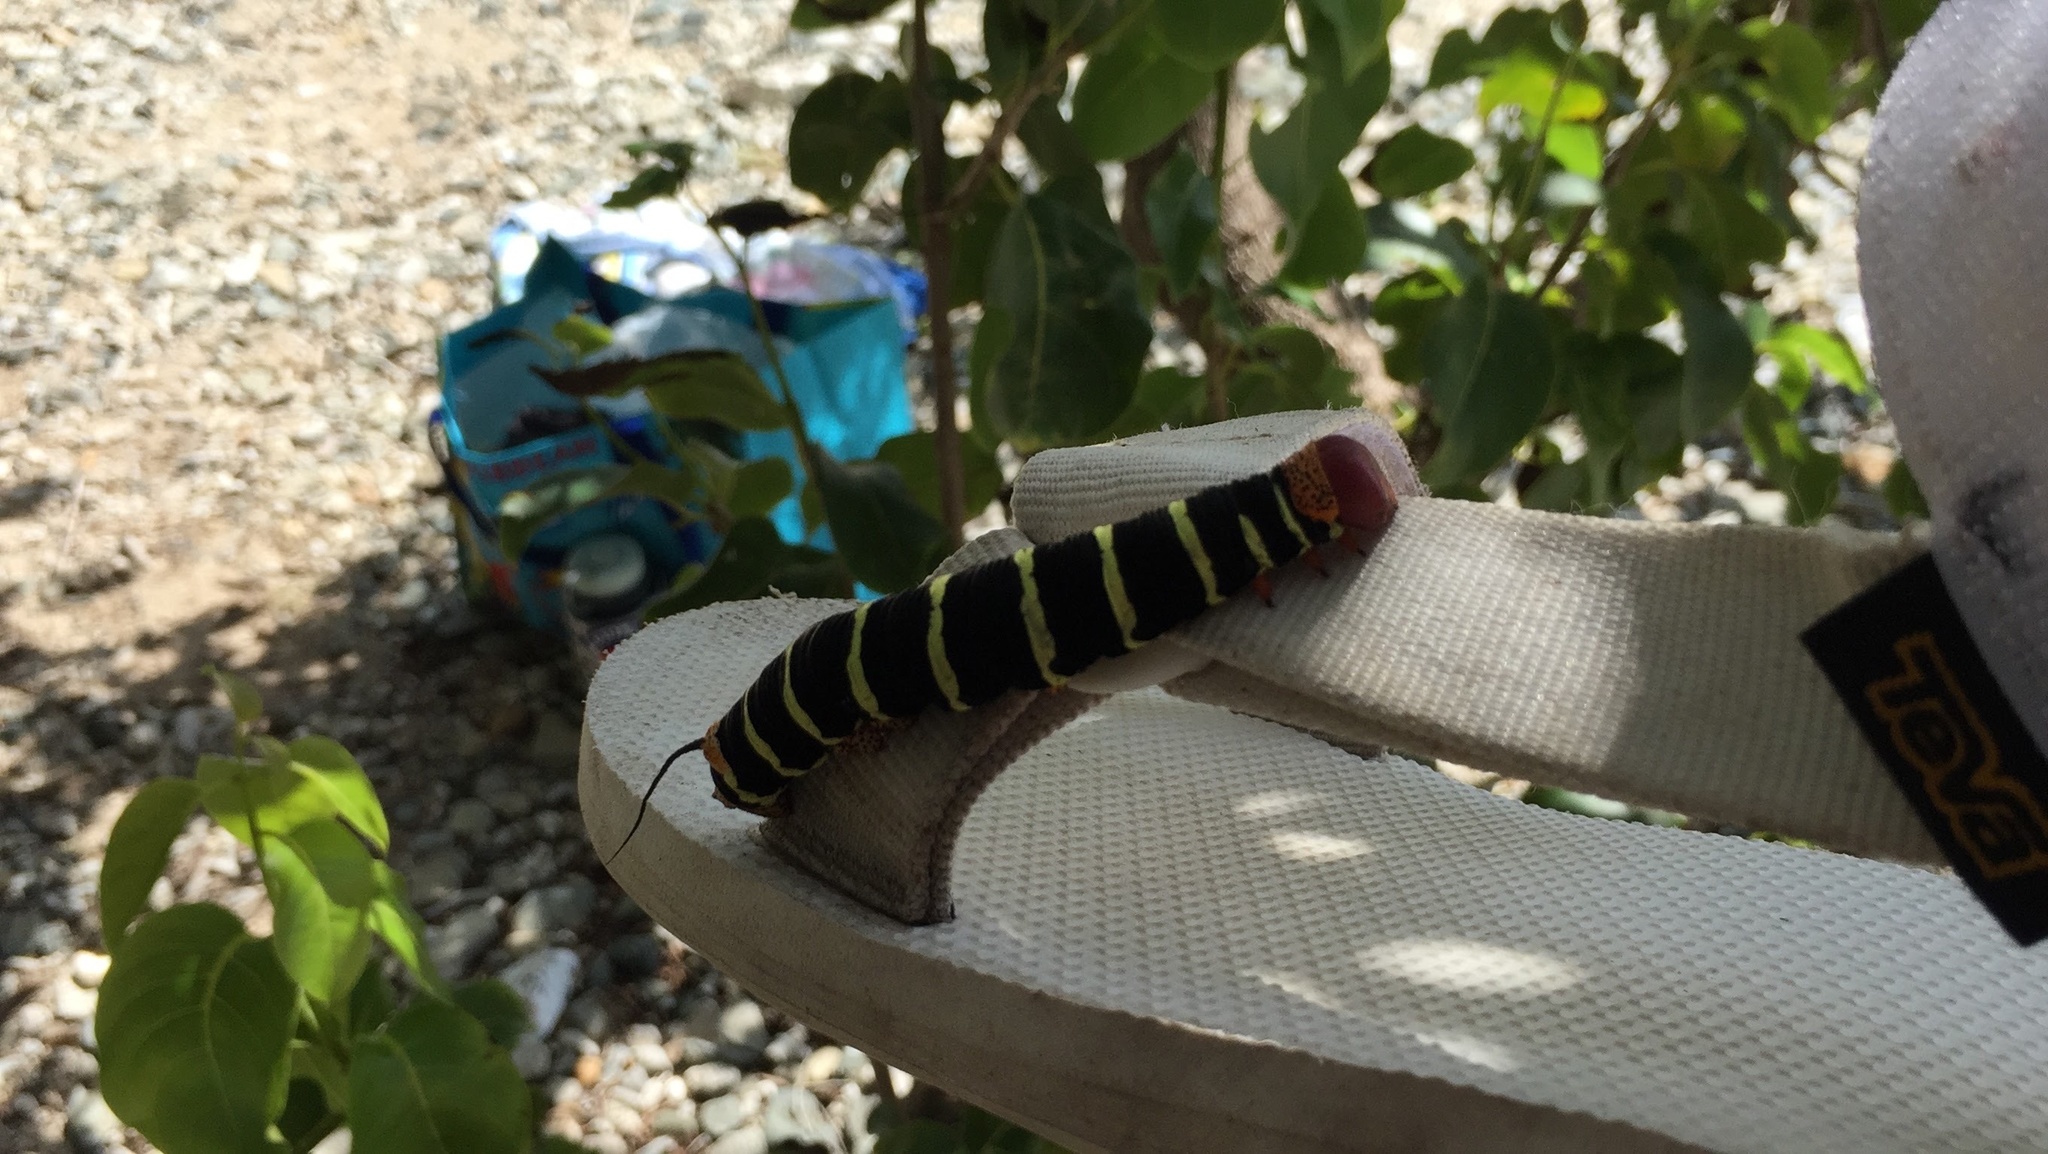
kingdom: Animalia
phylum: Arthropoda
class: Insecta
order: Lepidoptera
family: Sphingidae
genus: Pseudosphinx
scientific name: Pseudosphinx tetrio
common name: Tetrio sphinx
